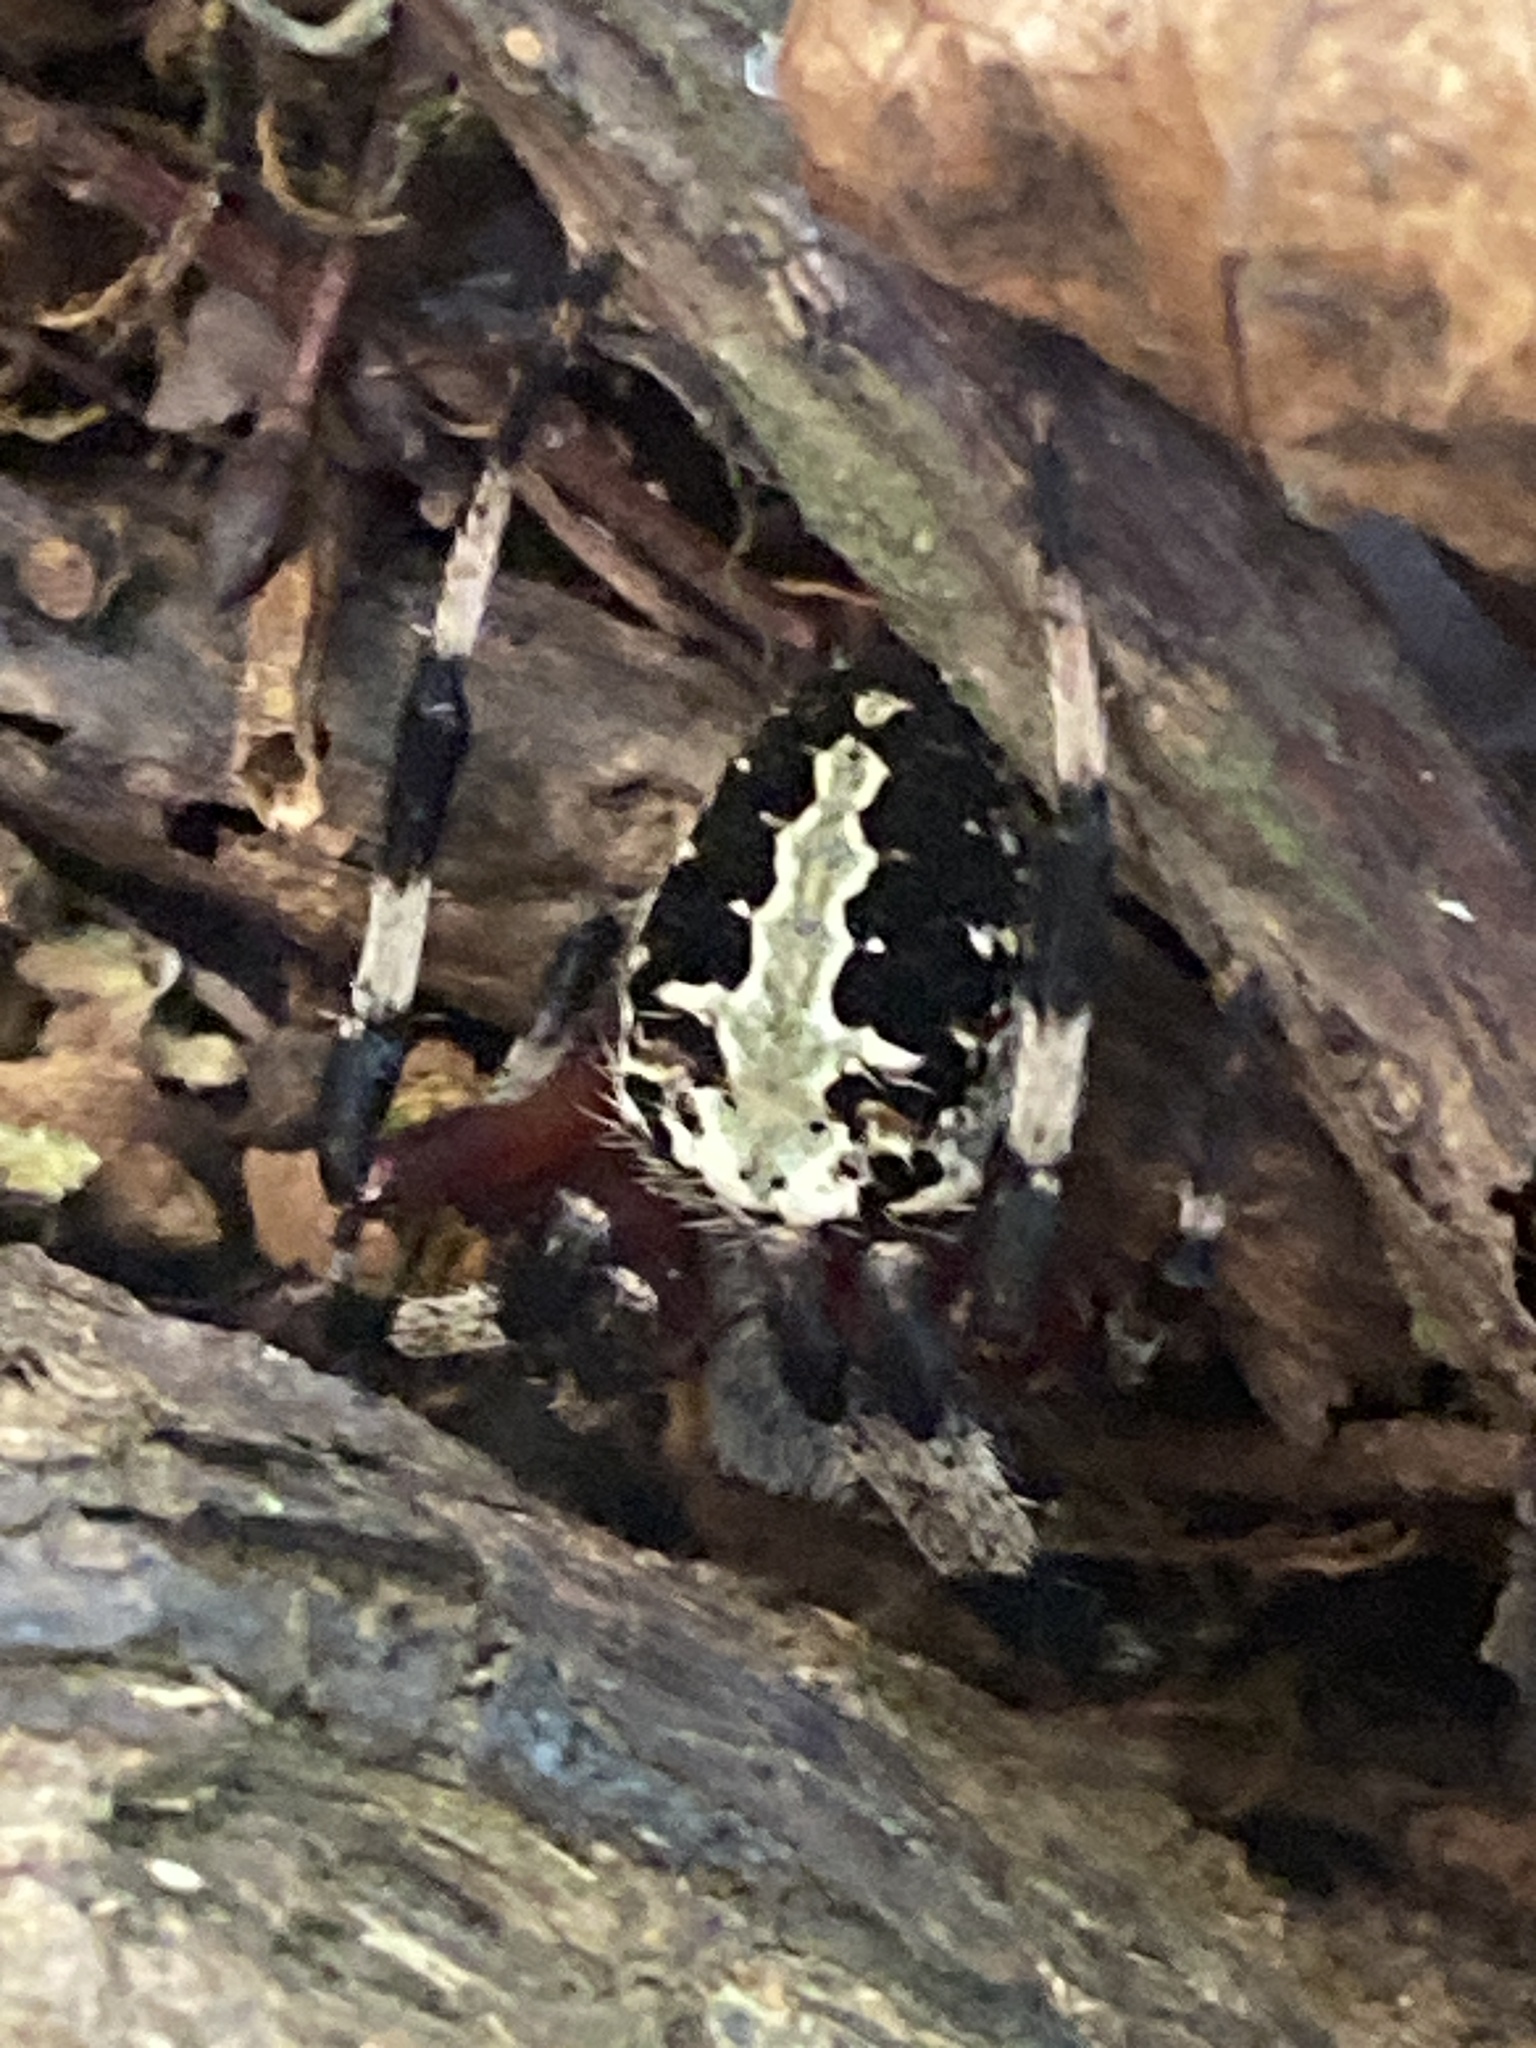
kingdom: Animalia
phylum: Arthropoda
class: Arachnida
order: Araneae
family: Araneidae
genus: Neoscona
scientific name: Neoscona domiciliorum
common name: Red-femured spotted orbweaver
